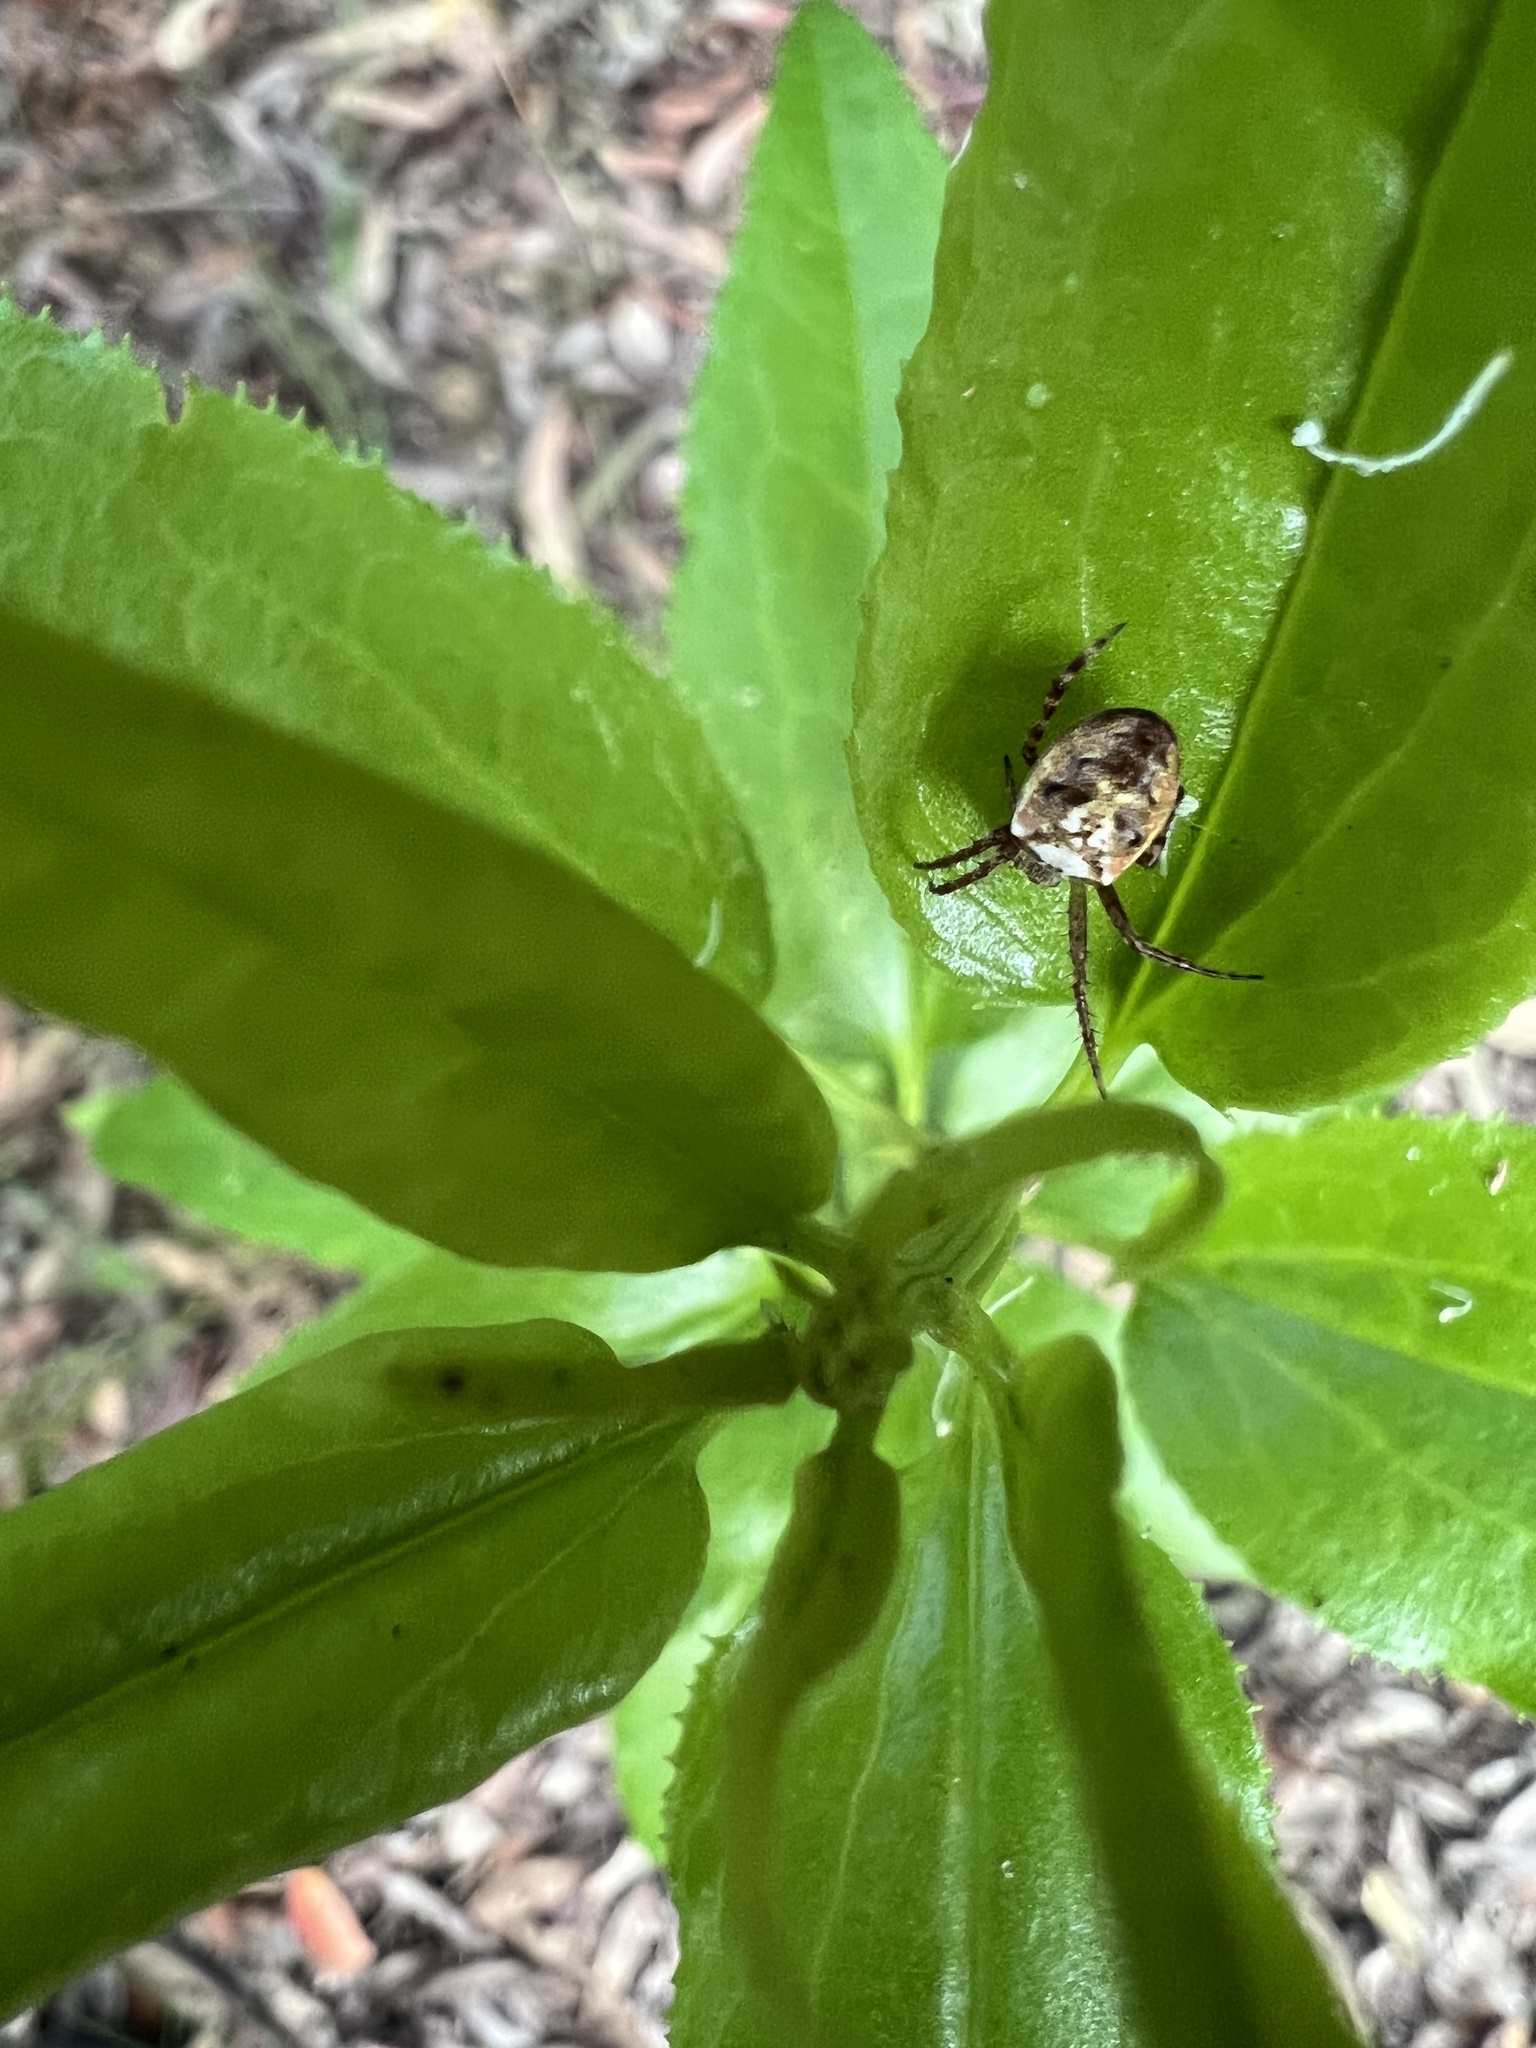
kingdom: Animalia
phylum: Arthropoda
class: Arachnida
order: Araneae
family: Araneidae
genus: Plebs
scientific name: Plebs eburnus
